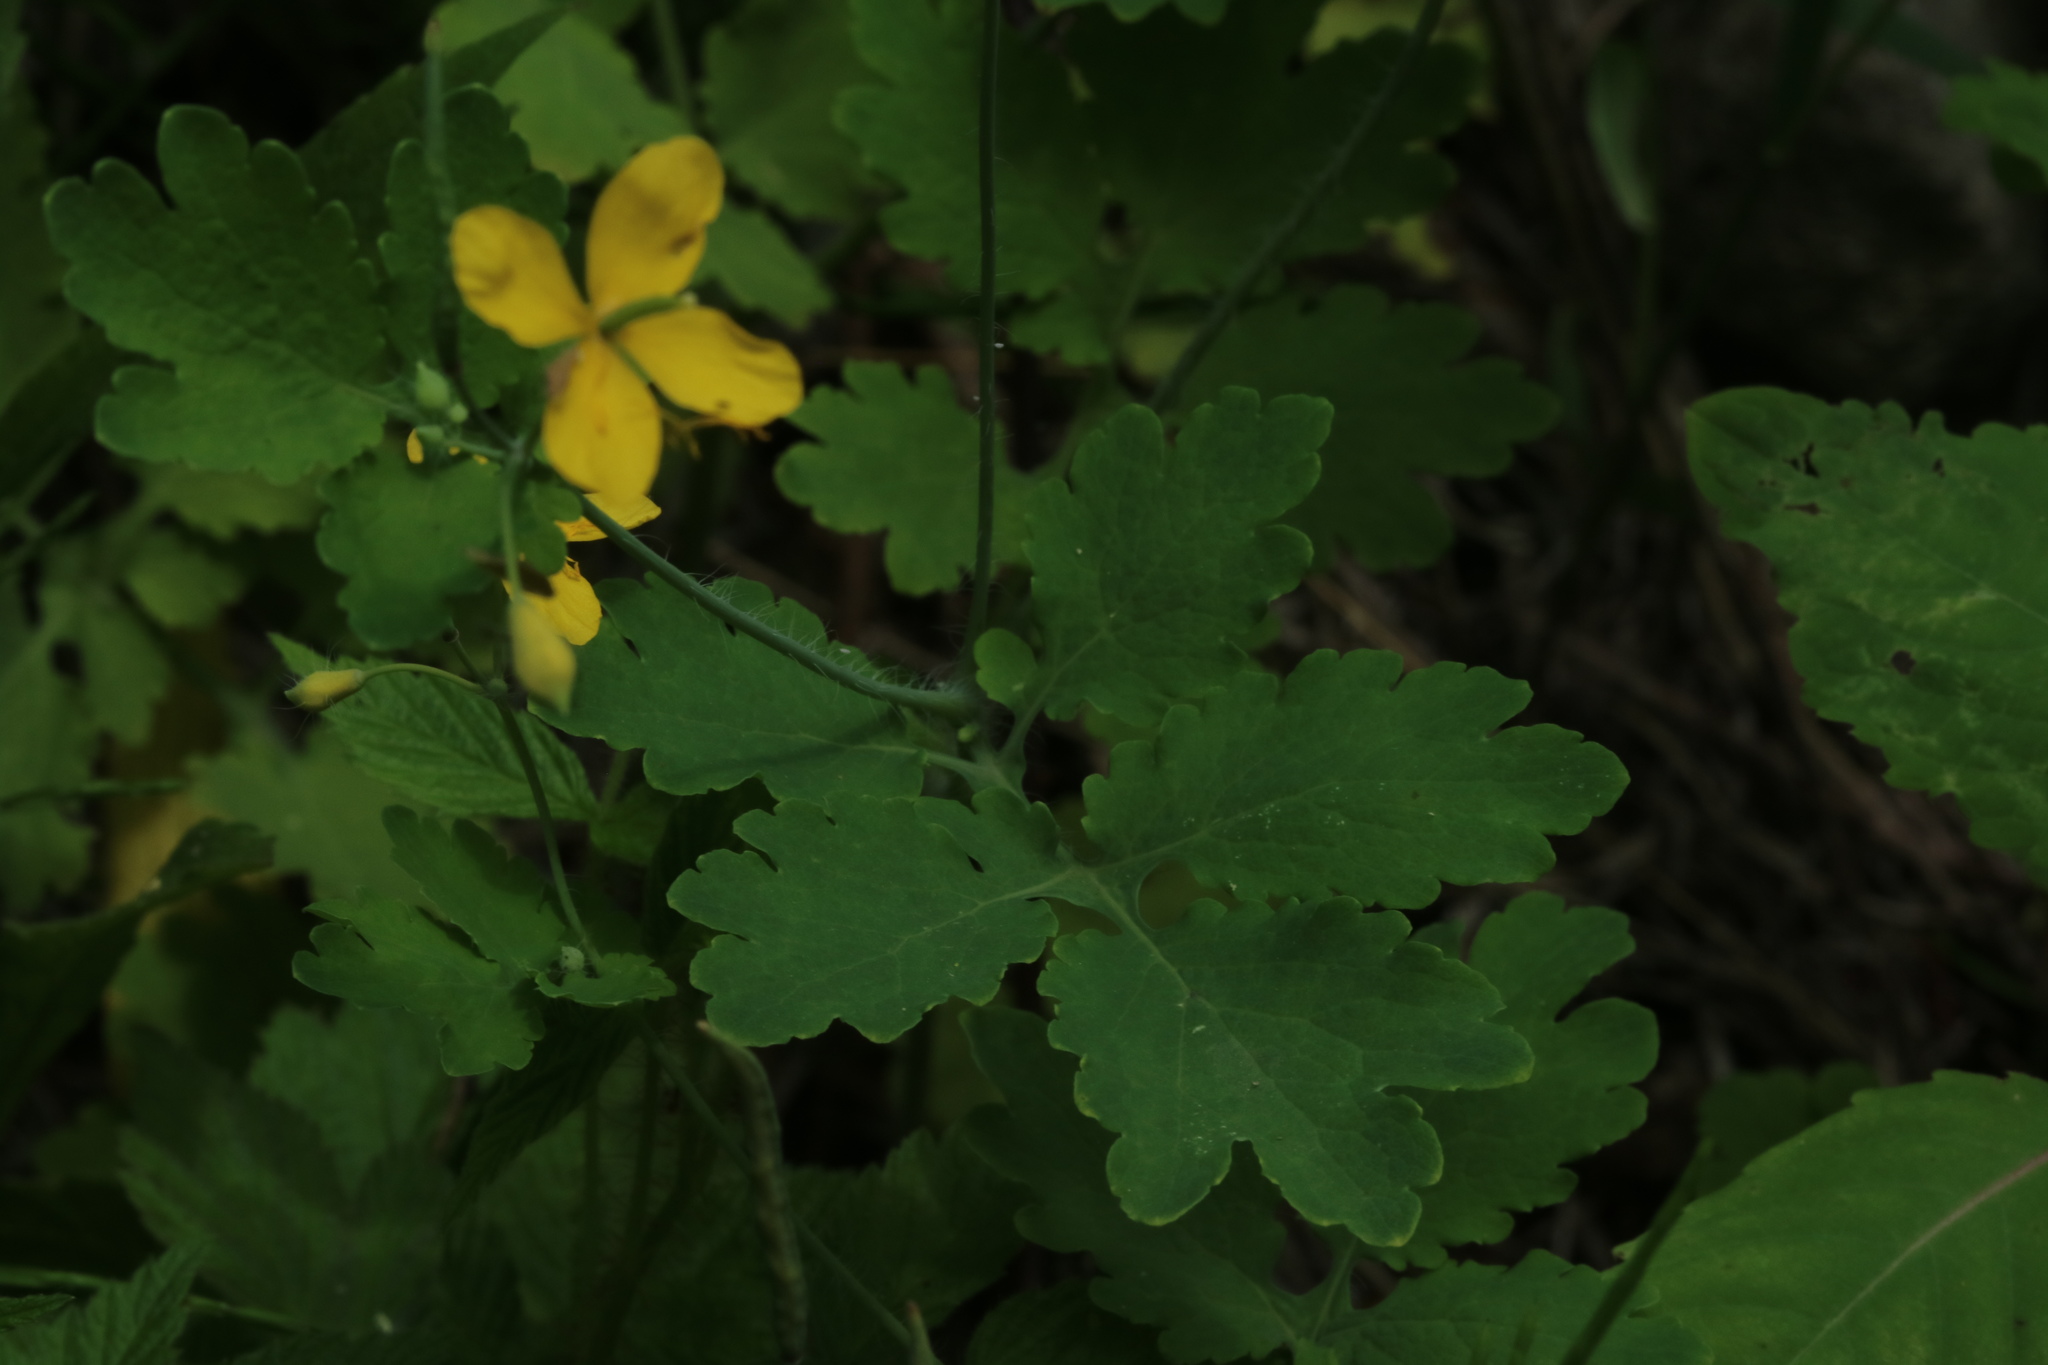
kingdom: Plantae
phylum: Tracheophyta
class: Magnoliopsida
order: Ranunculales
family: Papaveraceae
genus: Chelidonium
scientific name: Chelidonium majus
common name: Greater celandine
